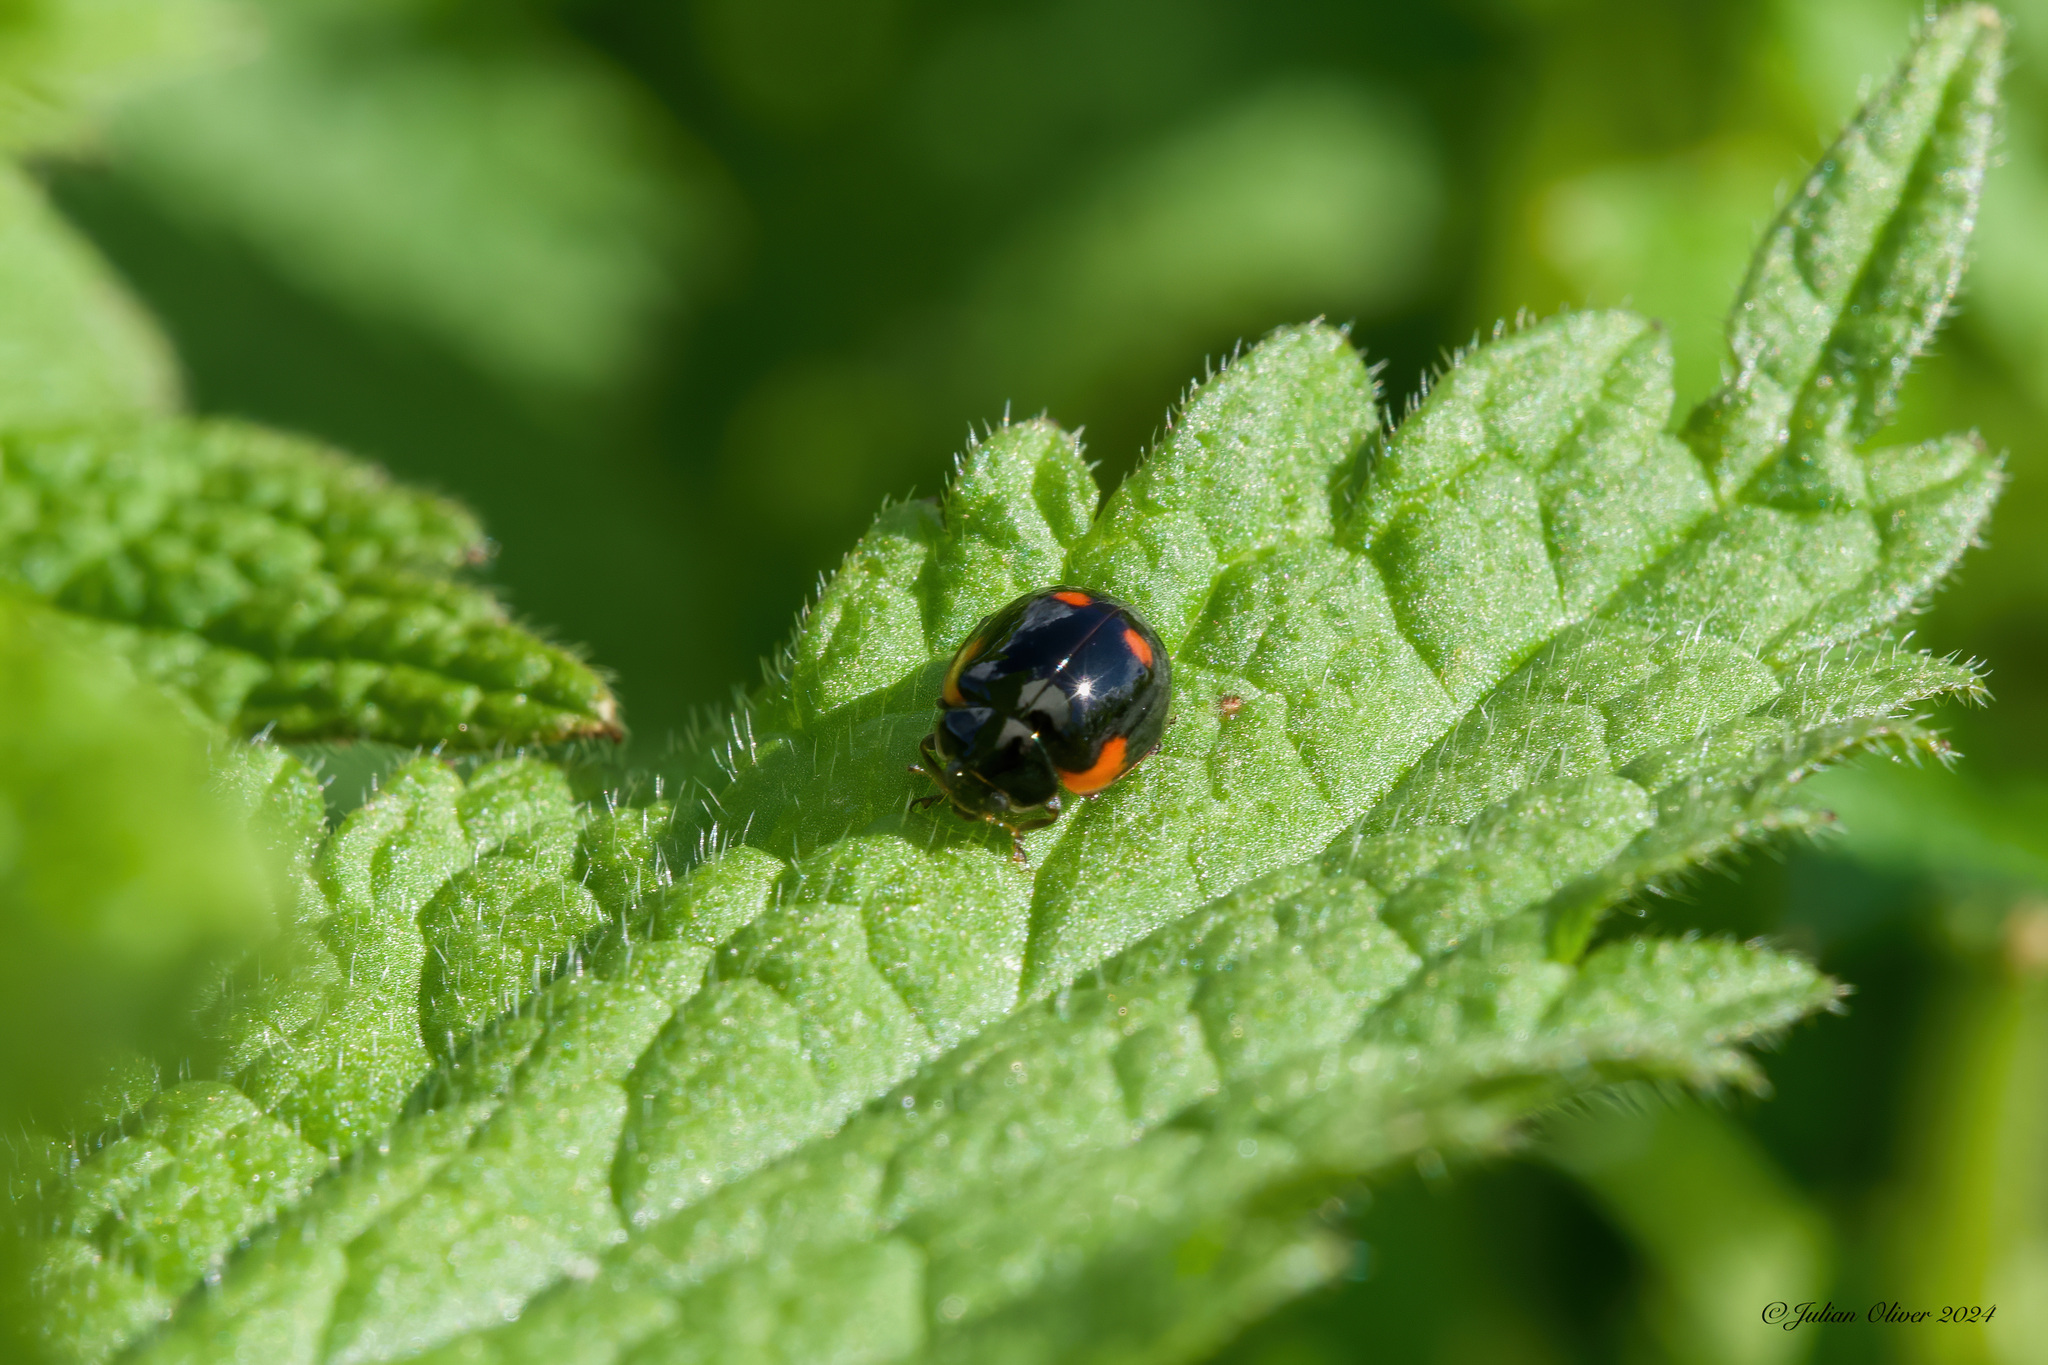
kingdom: Animalia
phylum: Arthropoda
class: Insecta
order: Coleoptera
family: Coccinellidae
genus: Brumus
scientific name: Brumus quadripustulatus
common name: Ladybird beetle
